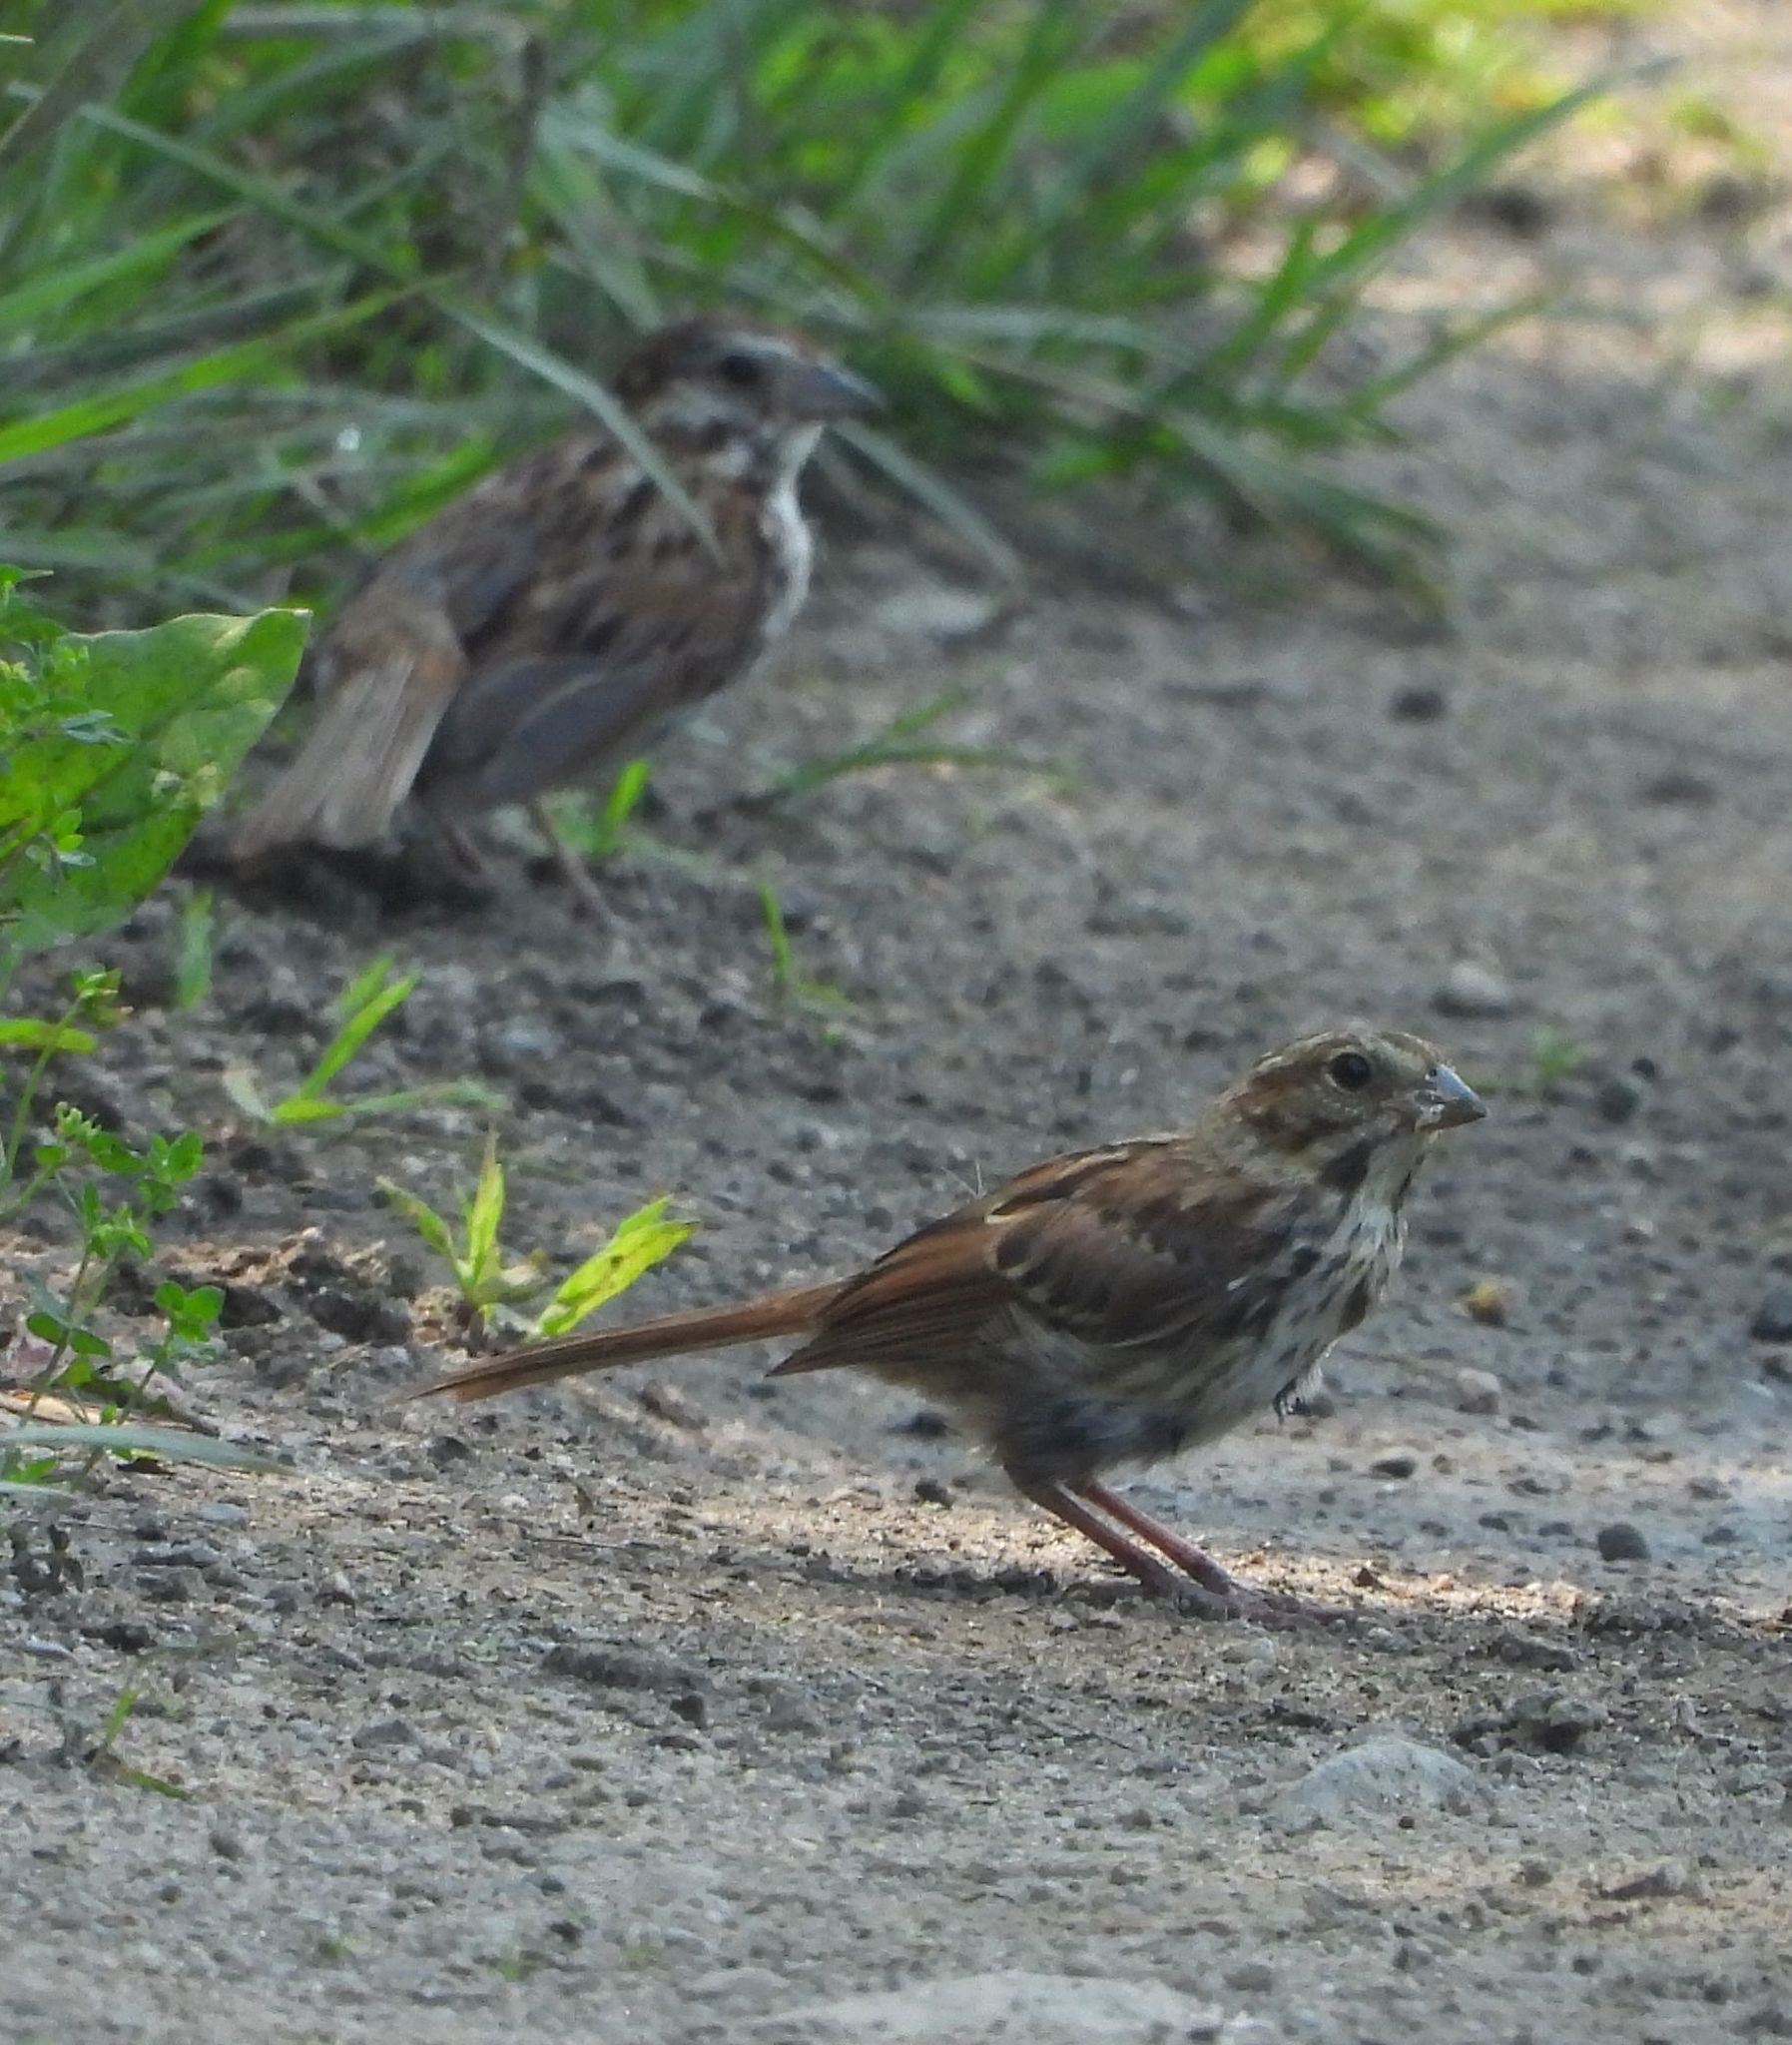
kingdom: Animalia
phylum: Chordata
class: Aves
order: Passeriformes
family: Passerellidae
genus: Melospiza
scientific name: Melospiza melodia
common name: Song sparrow
